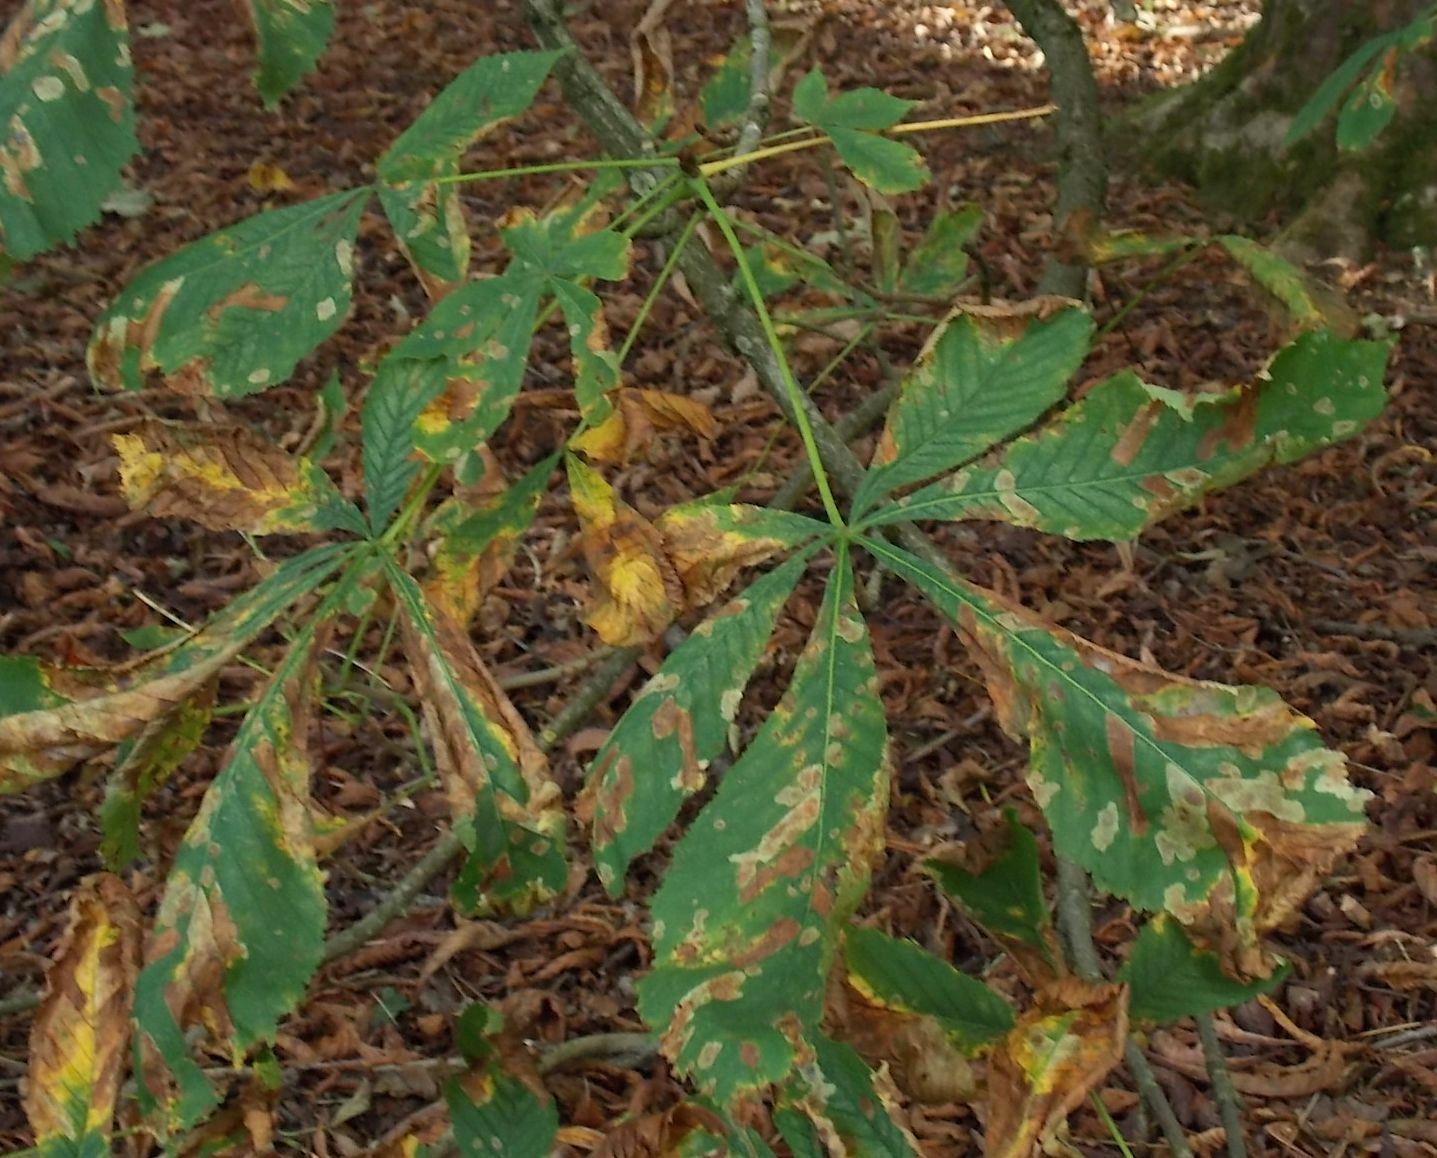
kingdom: Plantae
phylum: Tracheophyta
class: Magnoliopsida
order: Sapindales
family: Sapindaceae
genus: Aesculus
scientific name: Aesculus hippocastanum
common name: Horse-chestnut
